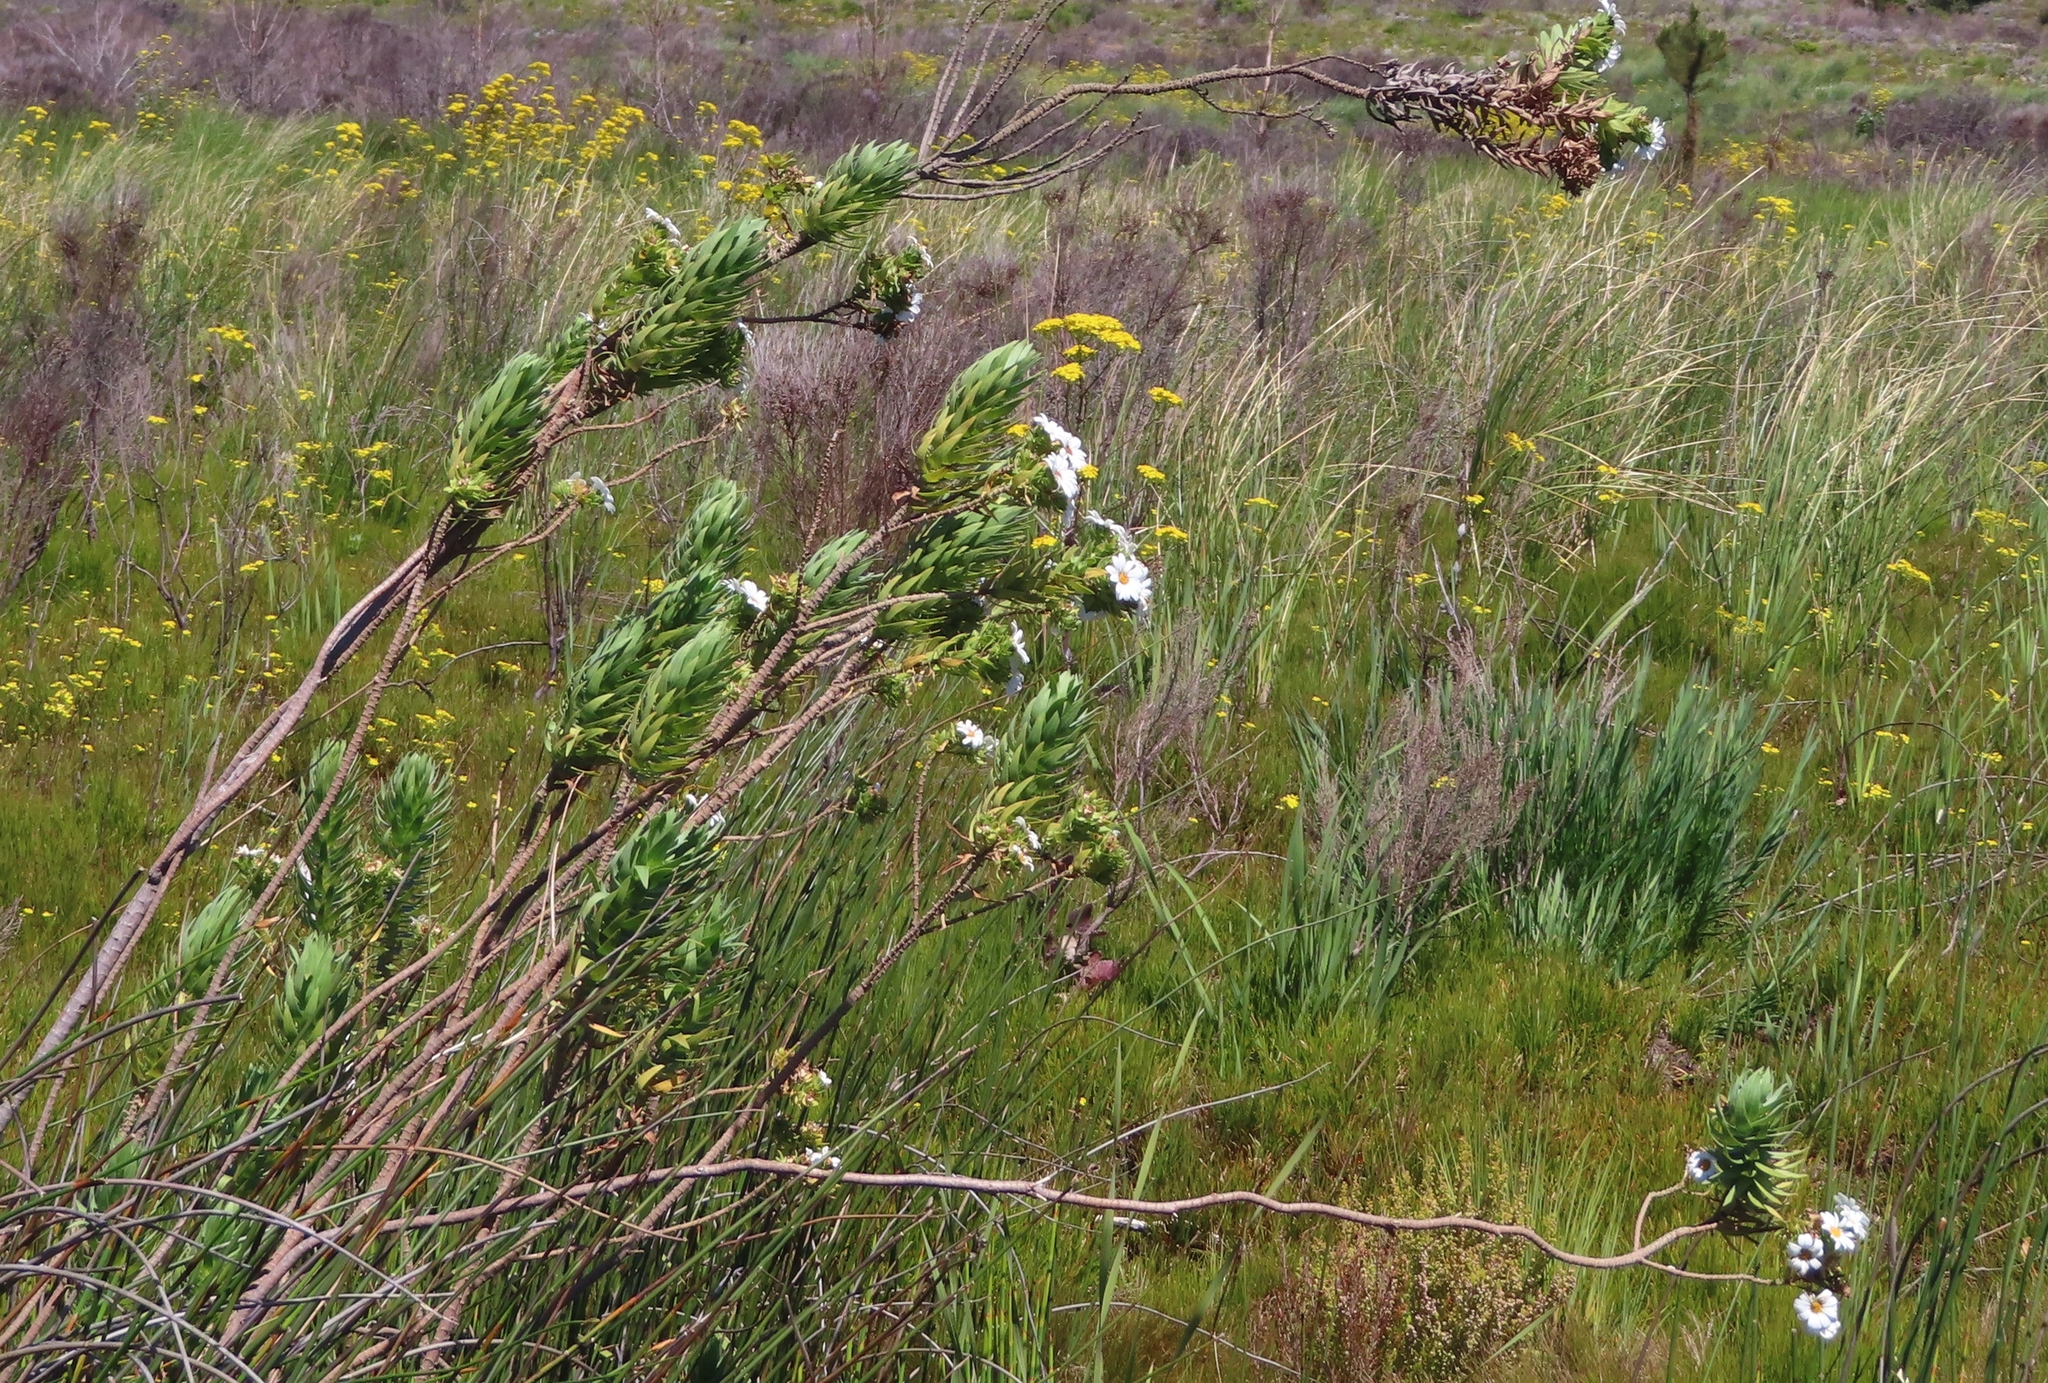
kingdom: Plantae
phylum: Tracheophyta
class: Magnoliopsida
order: Asterales
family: Asteraceae
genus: Osmitopsis
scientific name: Osmitopsis asteriscoides
